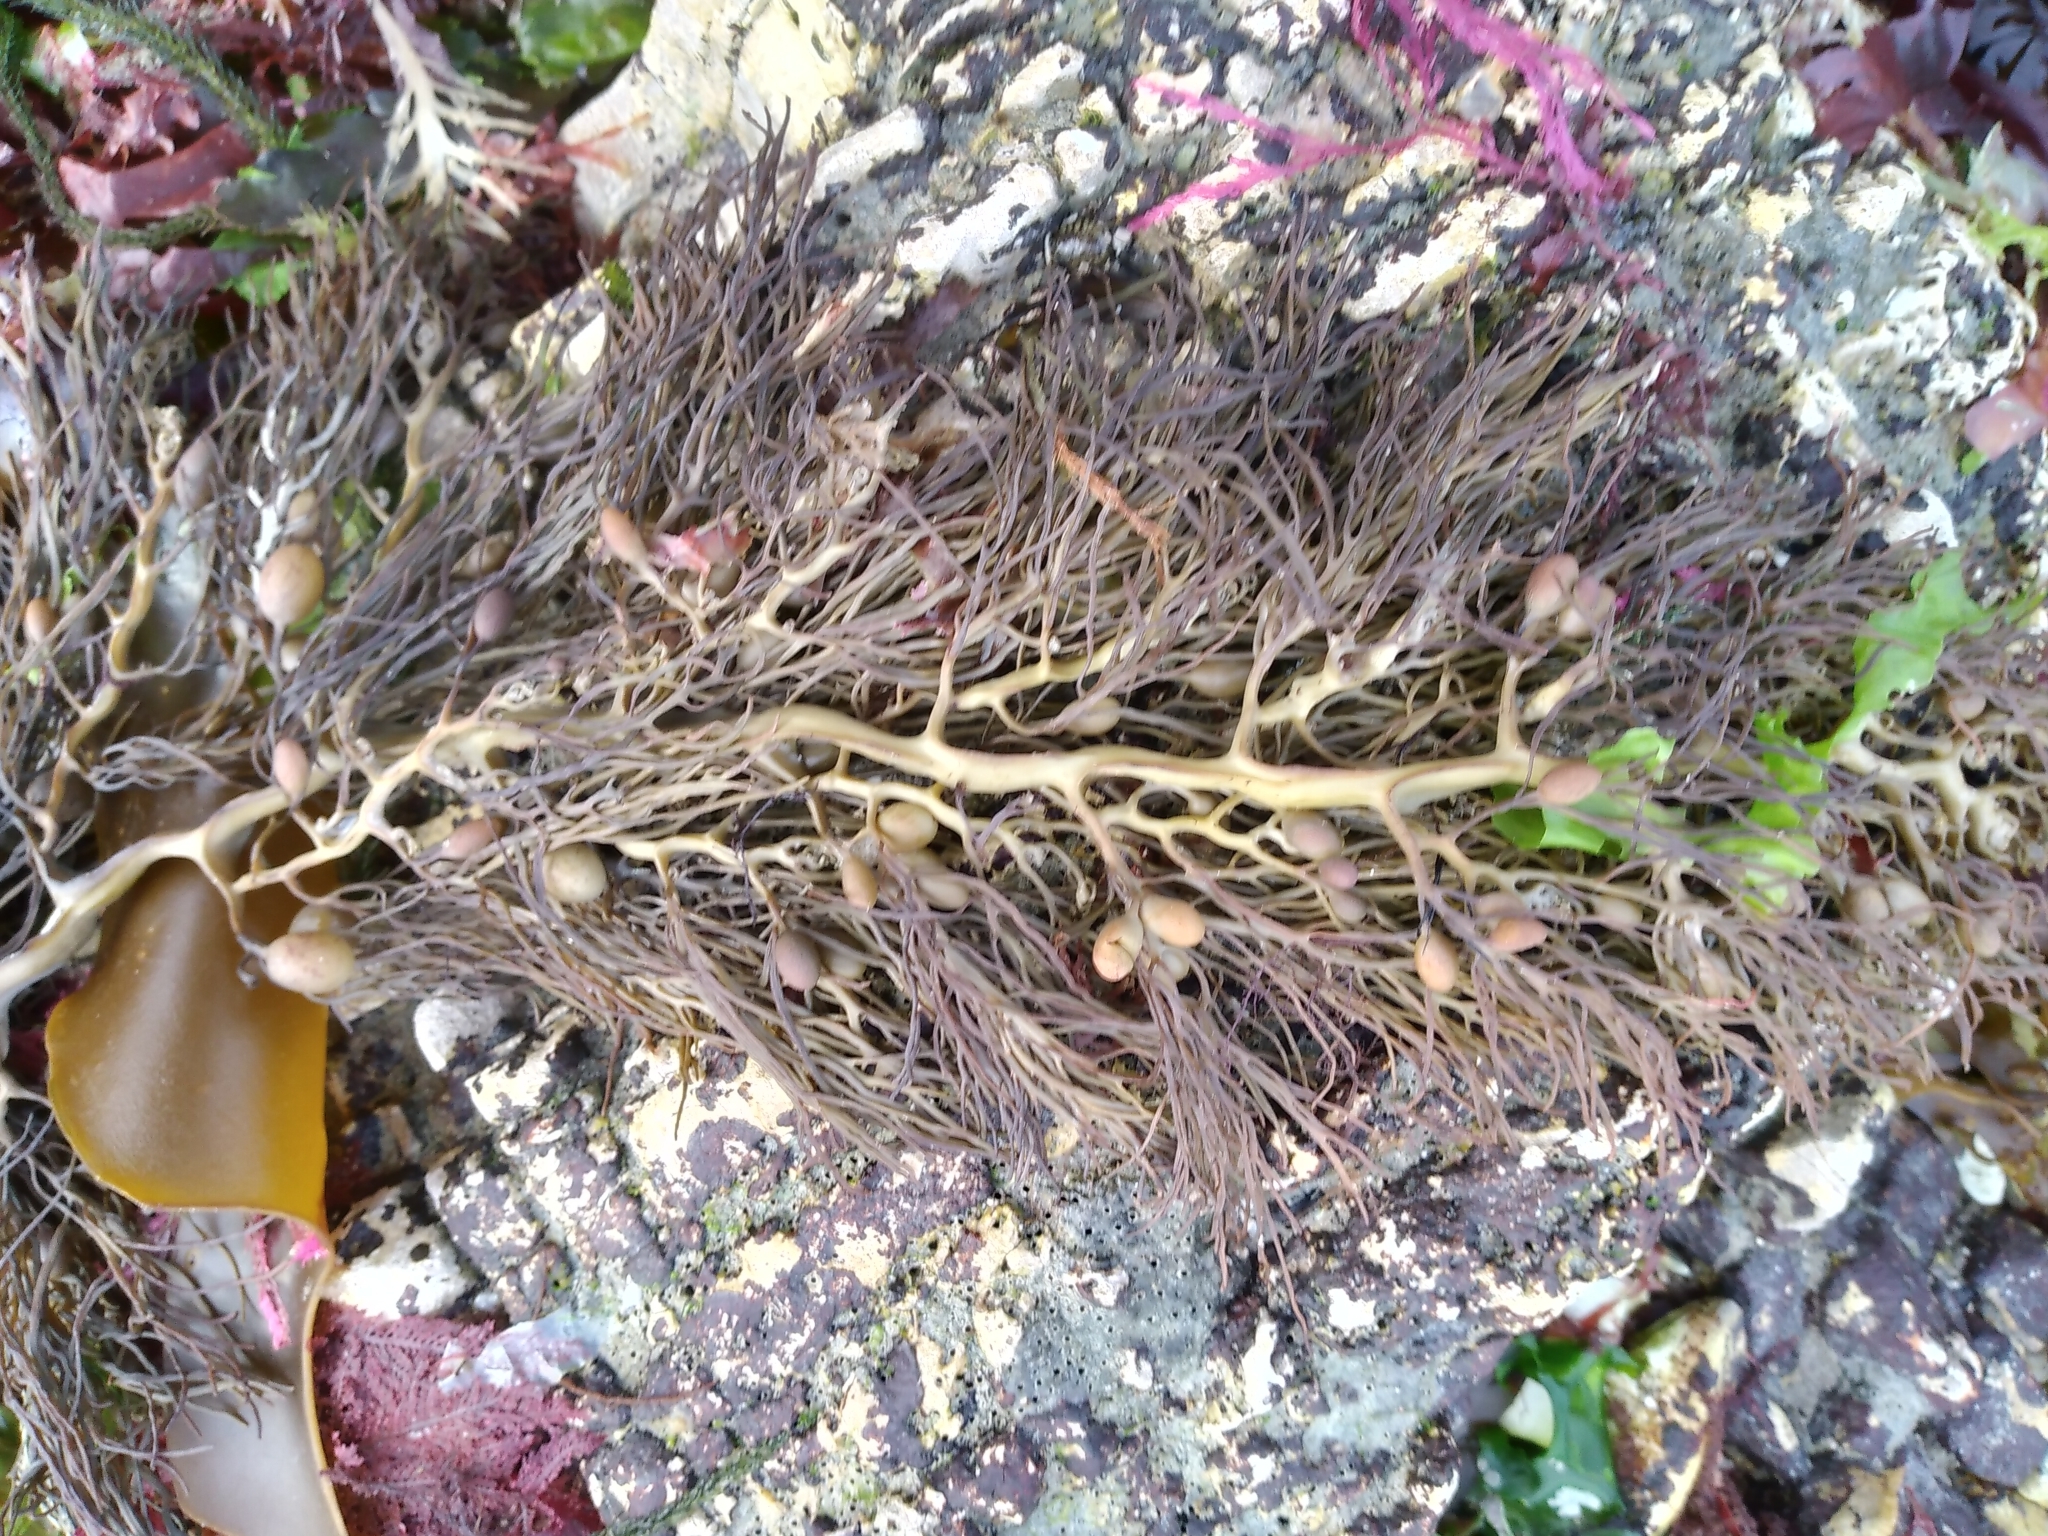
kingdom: Chromista
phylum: Ochrophyta
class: Phaeophyceae
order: Fucales
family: Sargassaceae
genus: Cystophora
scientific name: Cystophora retroflexa
